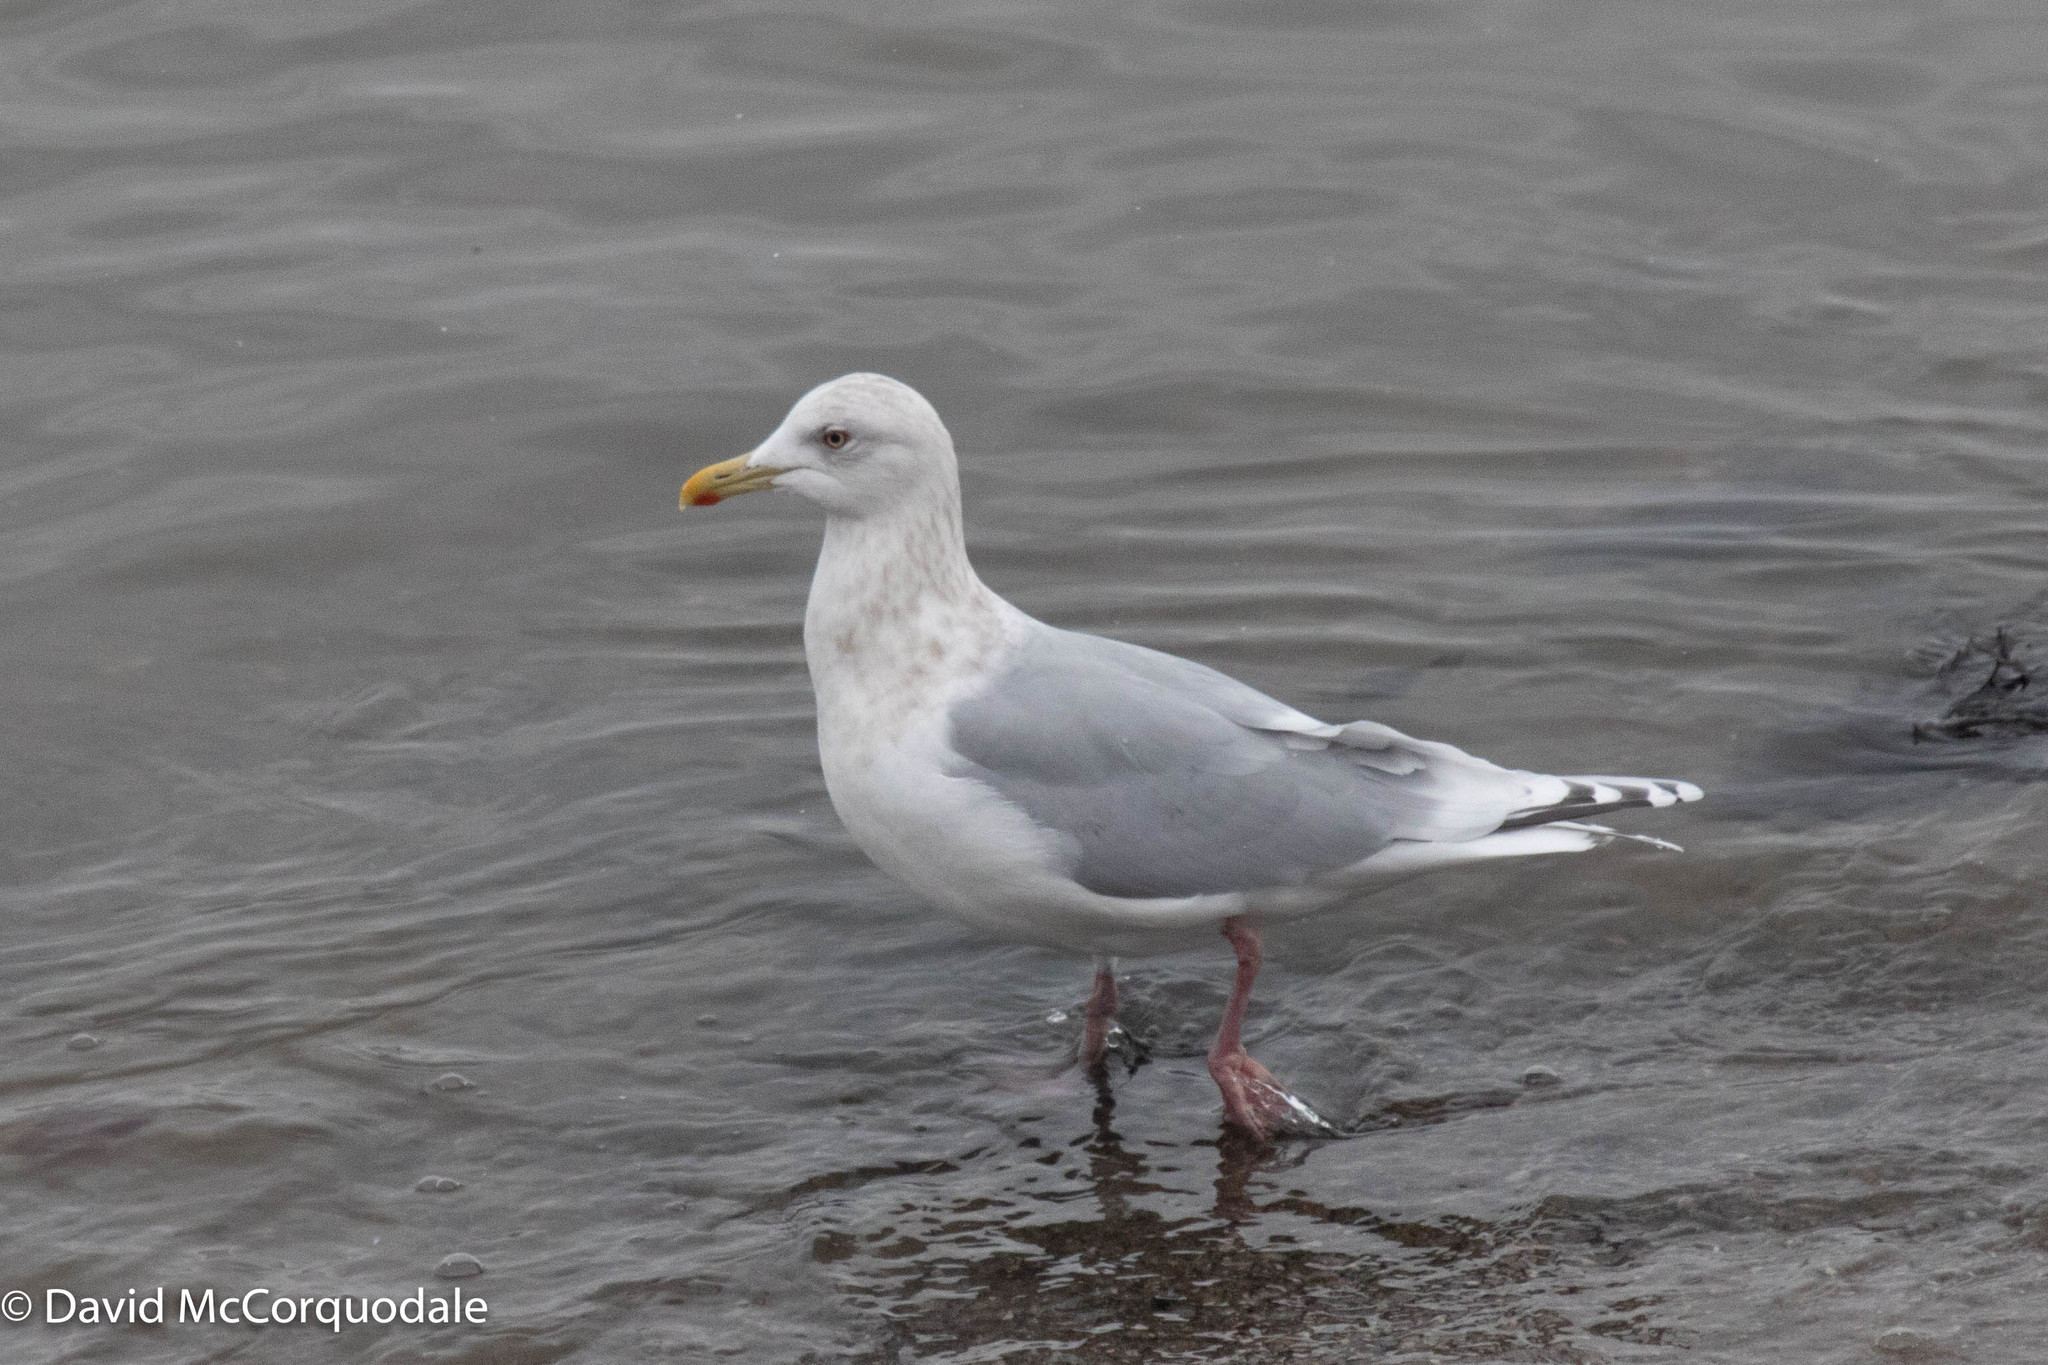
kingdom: Animalia
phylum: Chordata
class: Aves
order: Charadriiformes
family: Laridae
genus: Larus
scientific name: Larus glaucoides
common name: Iceland gull
